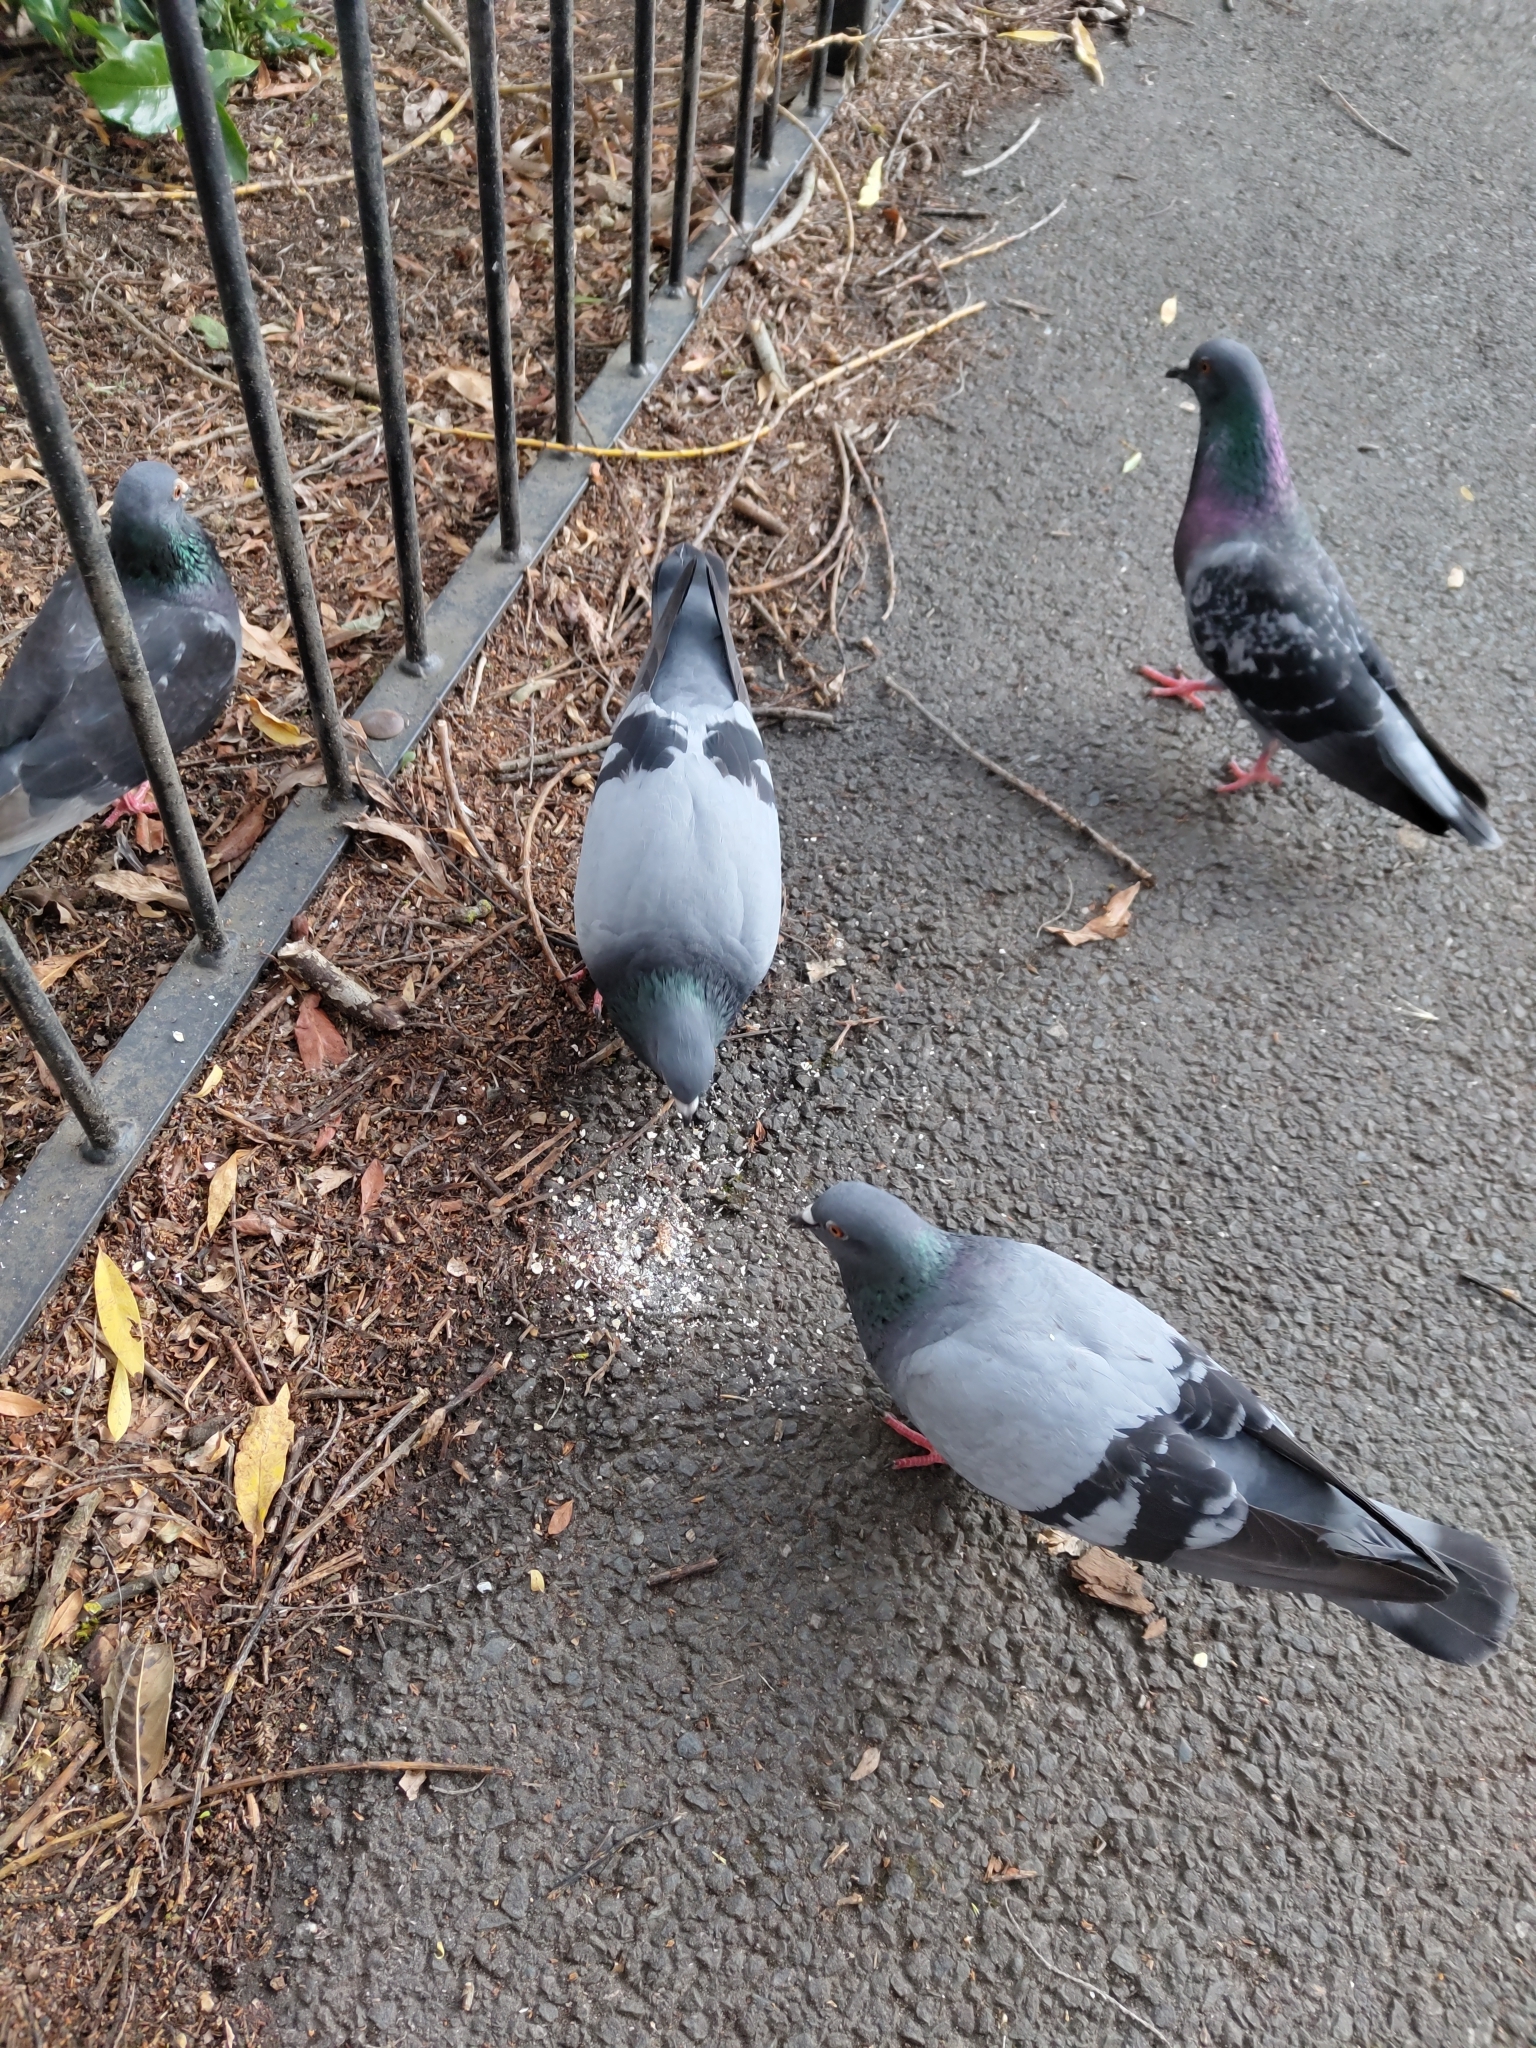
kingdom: Animalia
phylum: Chordata
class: Aves
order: Columbiformes
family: Columbidae
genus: Columba
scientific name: Columba livia
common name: Rock pigeon
